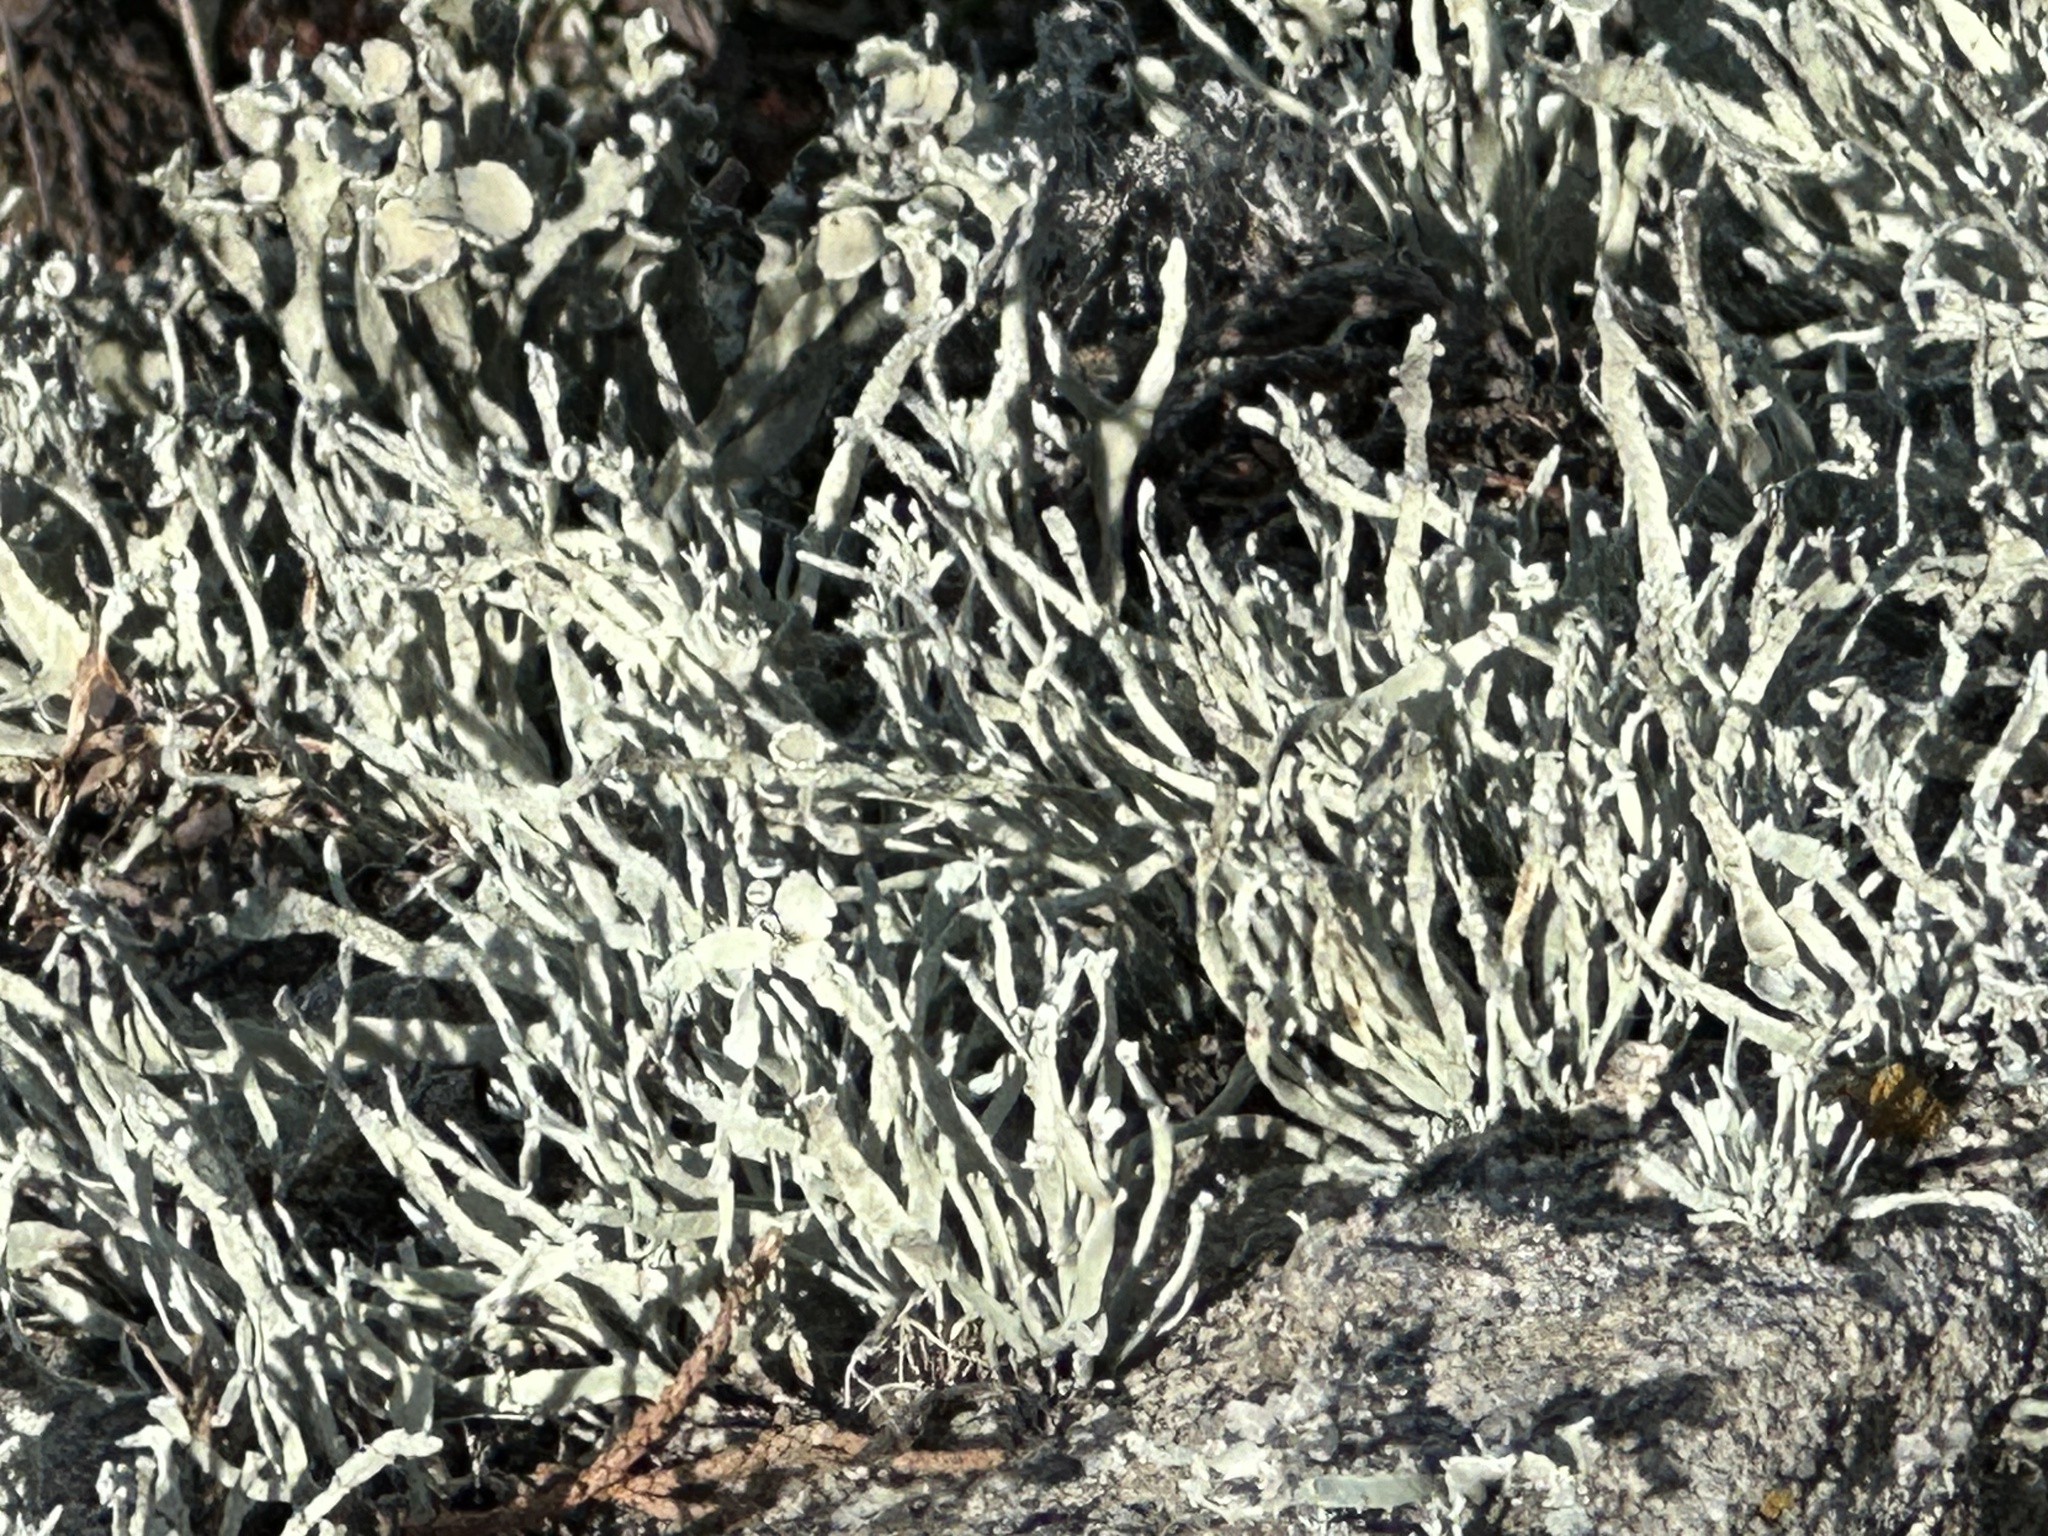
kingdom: Fungi
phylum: Ascomycota
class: Lecanoromycetes
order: Lecanorales
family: Ramalinaceae
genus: Niebla
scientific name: Niebla homalea
